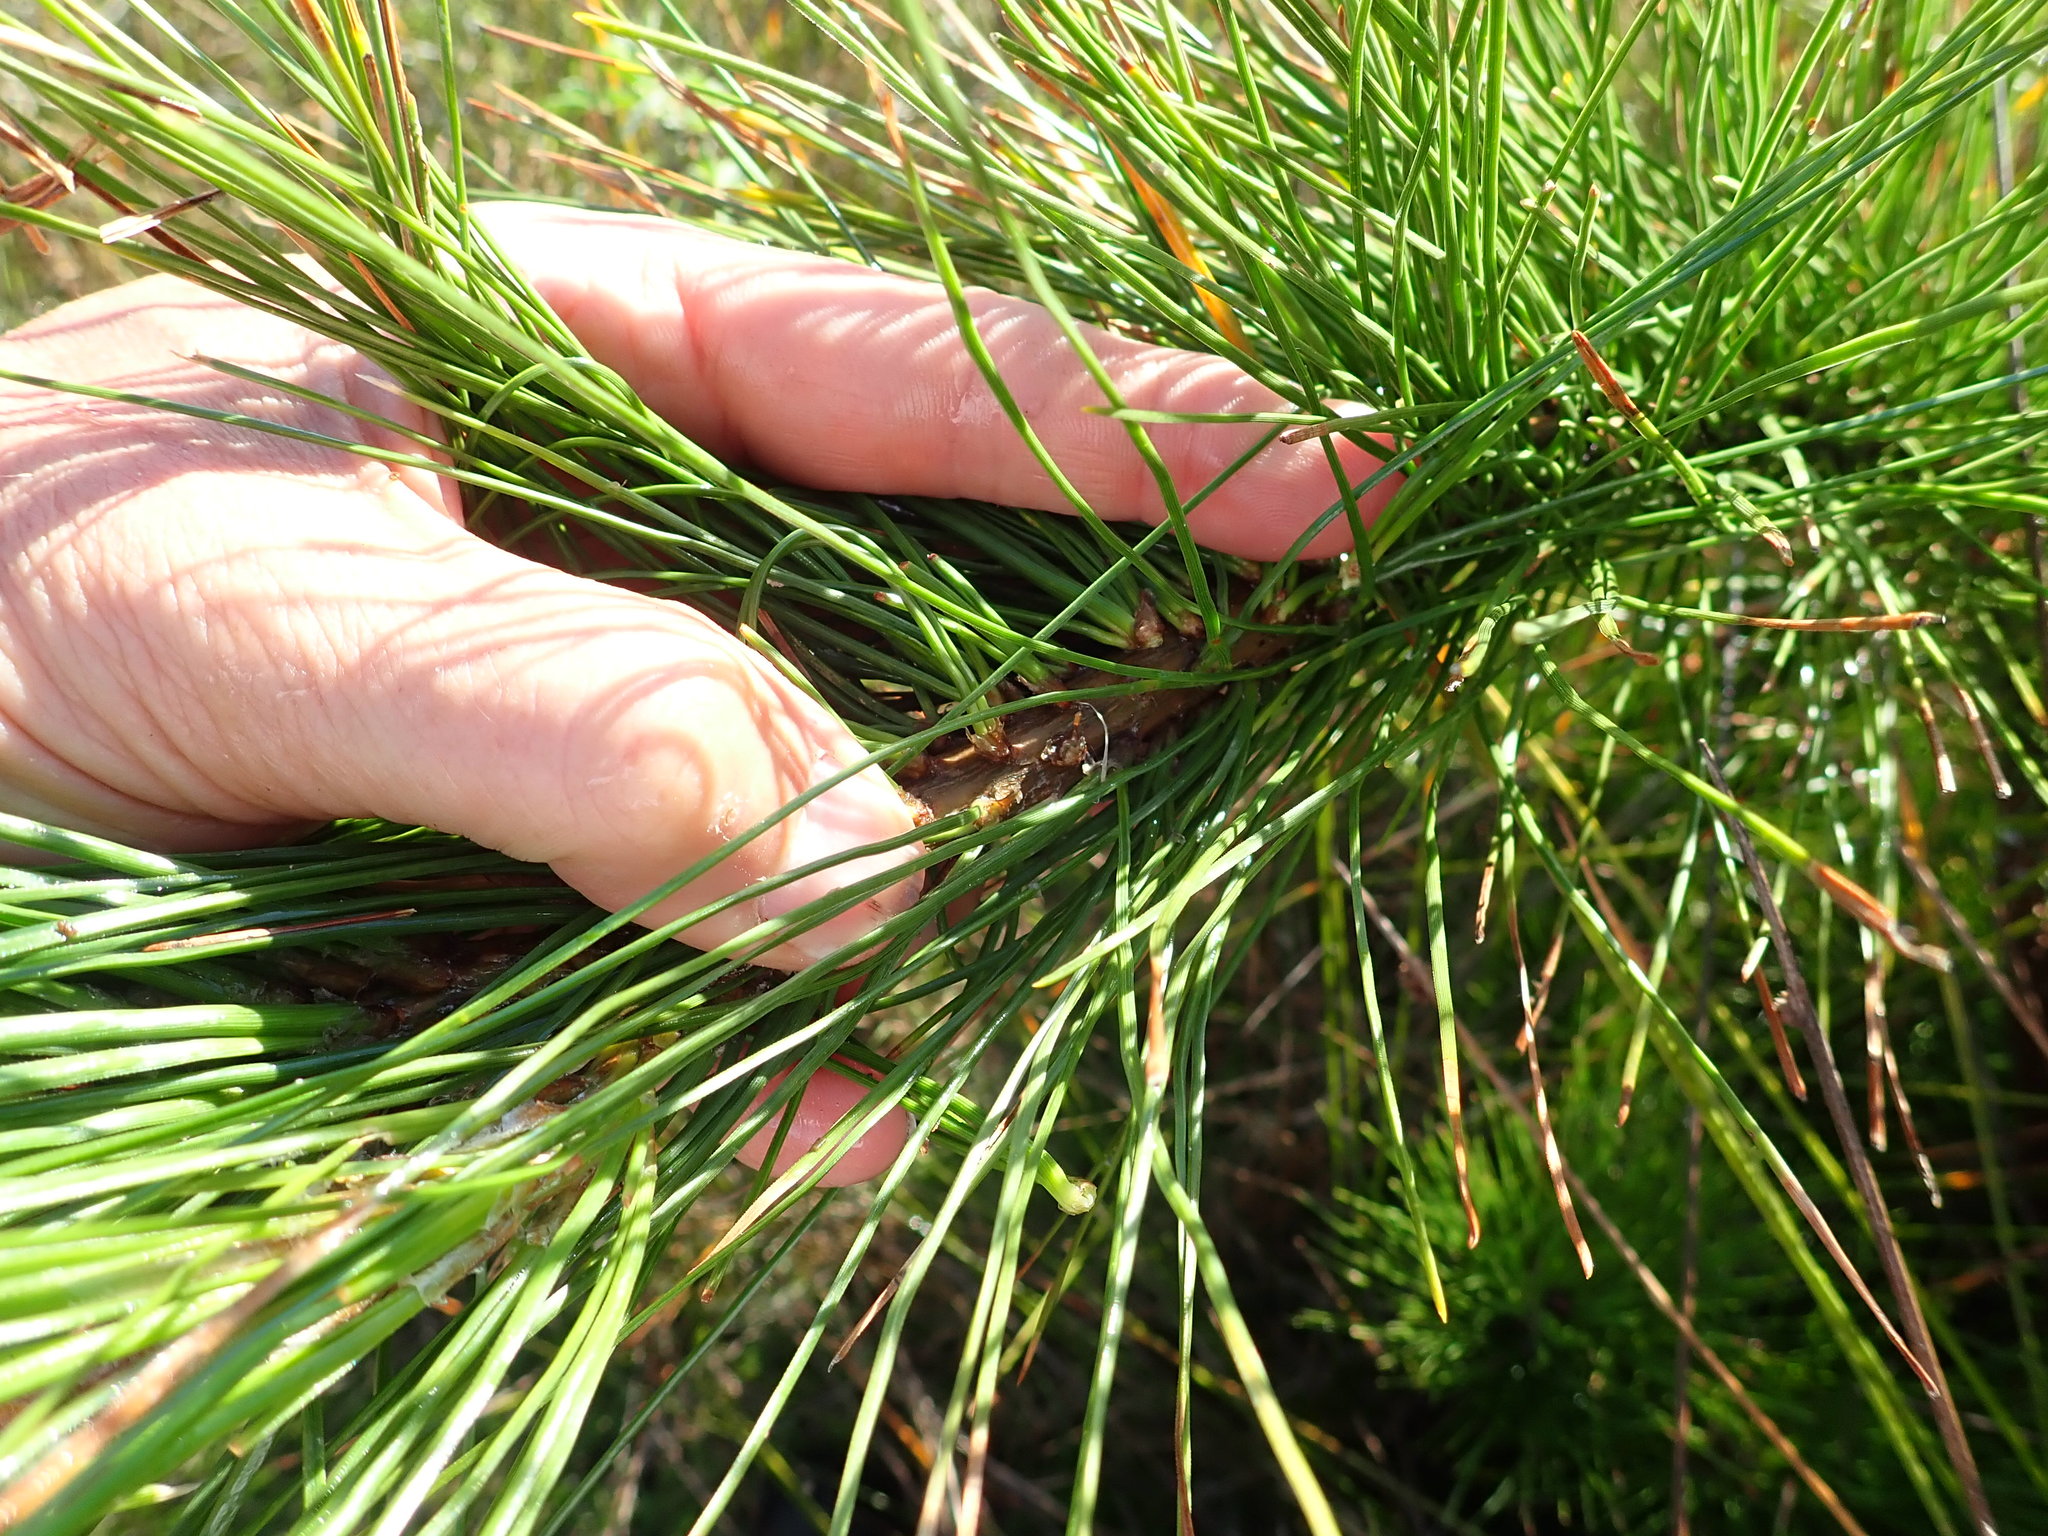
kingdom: Plantae
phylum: Tracheophyta
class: Pinopsida
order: Pinales
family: Pinaceae
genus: Pinus
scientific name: Pinus radiata
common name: Monterey pine
